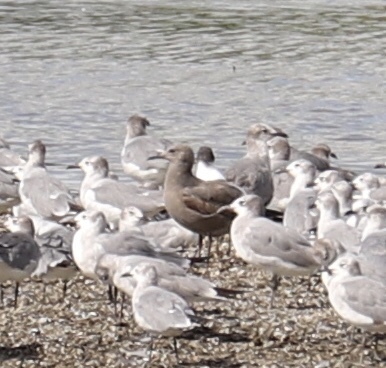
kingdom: Animalia
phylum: Chordata
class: Aves
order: Charadriiformes
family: Laridae
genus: Leucophaeus
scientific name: Leucophaeus modestus
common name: Gray gull
